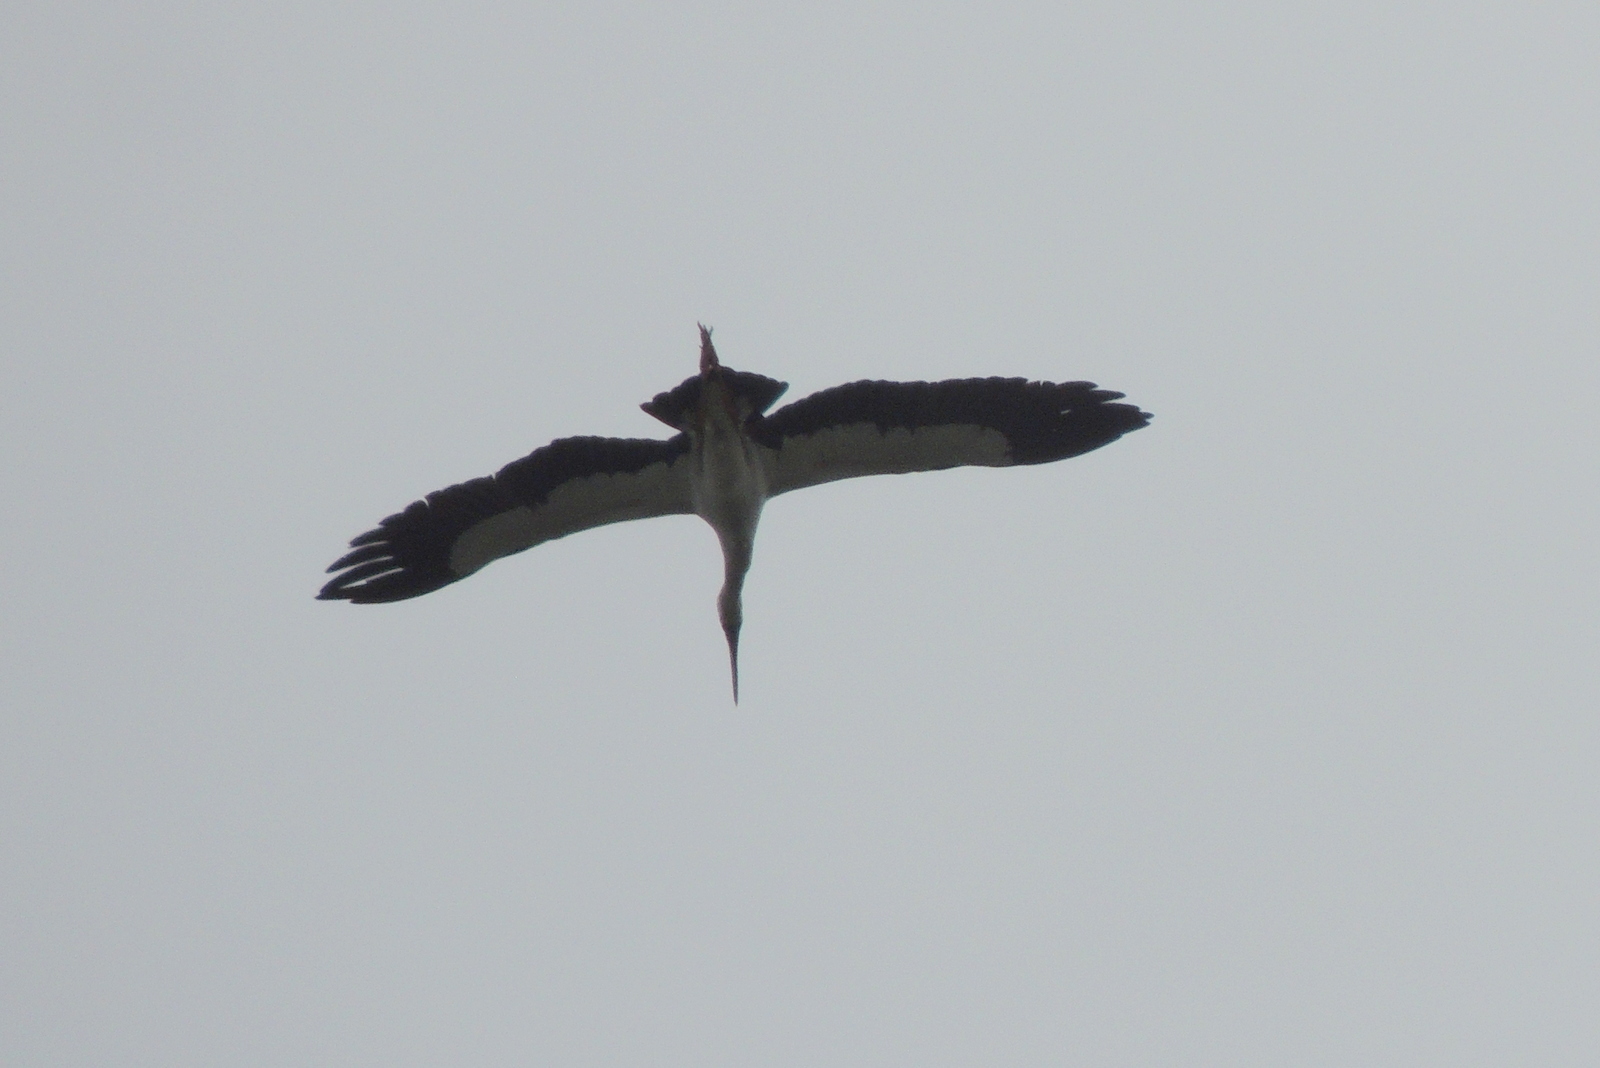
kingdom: Animalia
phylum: Chordata
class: Aves
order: Ciconiiformes
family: Ciconiidae
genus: Anastomus
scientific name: Anastomus oscitans
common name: Asian openbill
